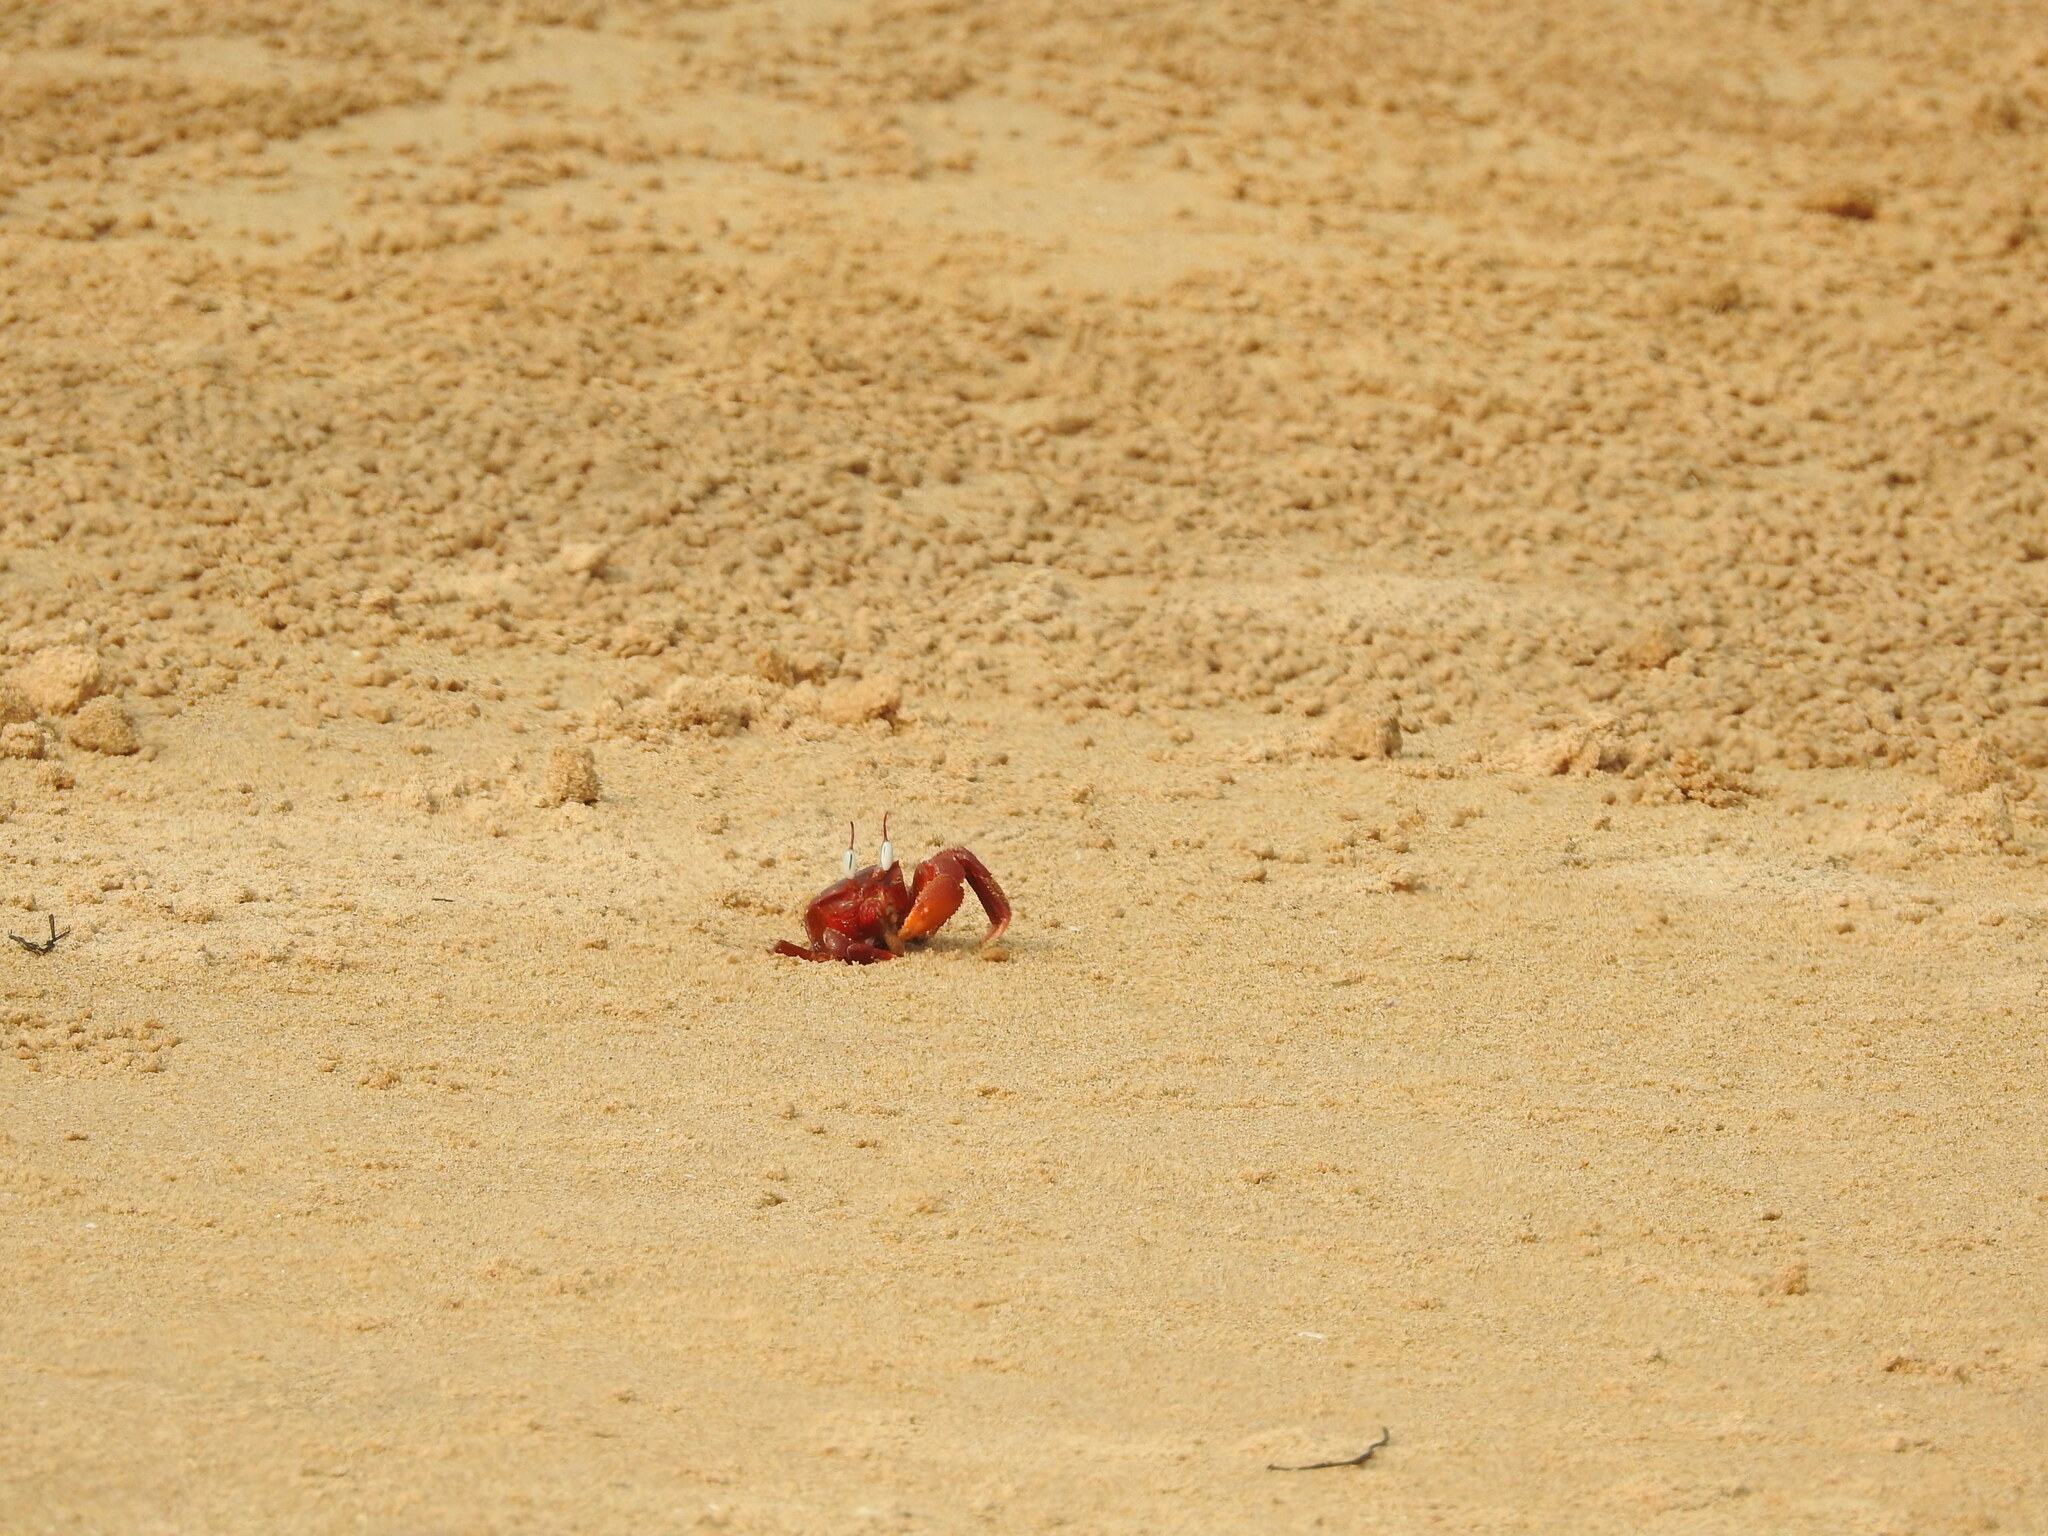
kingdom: Animalia
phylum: Arthropoda
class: Malacostraca
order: Decapoda
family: Ocypodidae
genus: Ocypode
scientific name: Ocypode macrocera
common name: Red ghost crab
